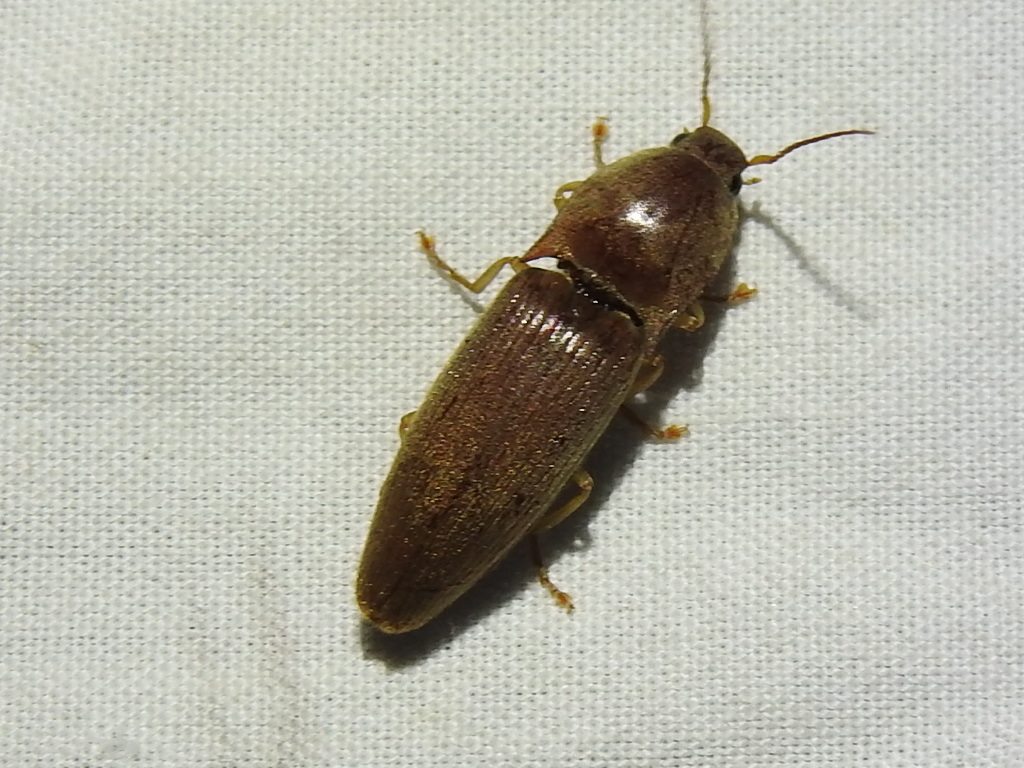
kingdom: Animalia
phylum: Arthropoda
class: Insecta
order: Coleoptera
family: Elateridae
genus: Monocrepidius
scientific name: Monocrepidius lividus
